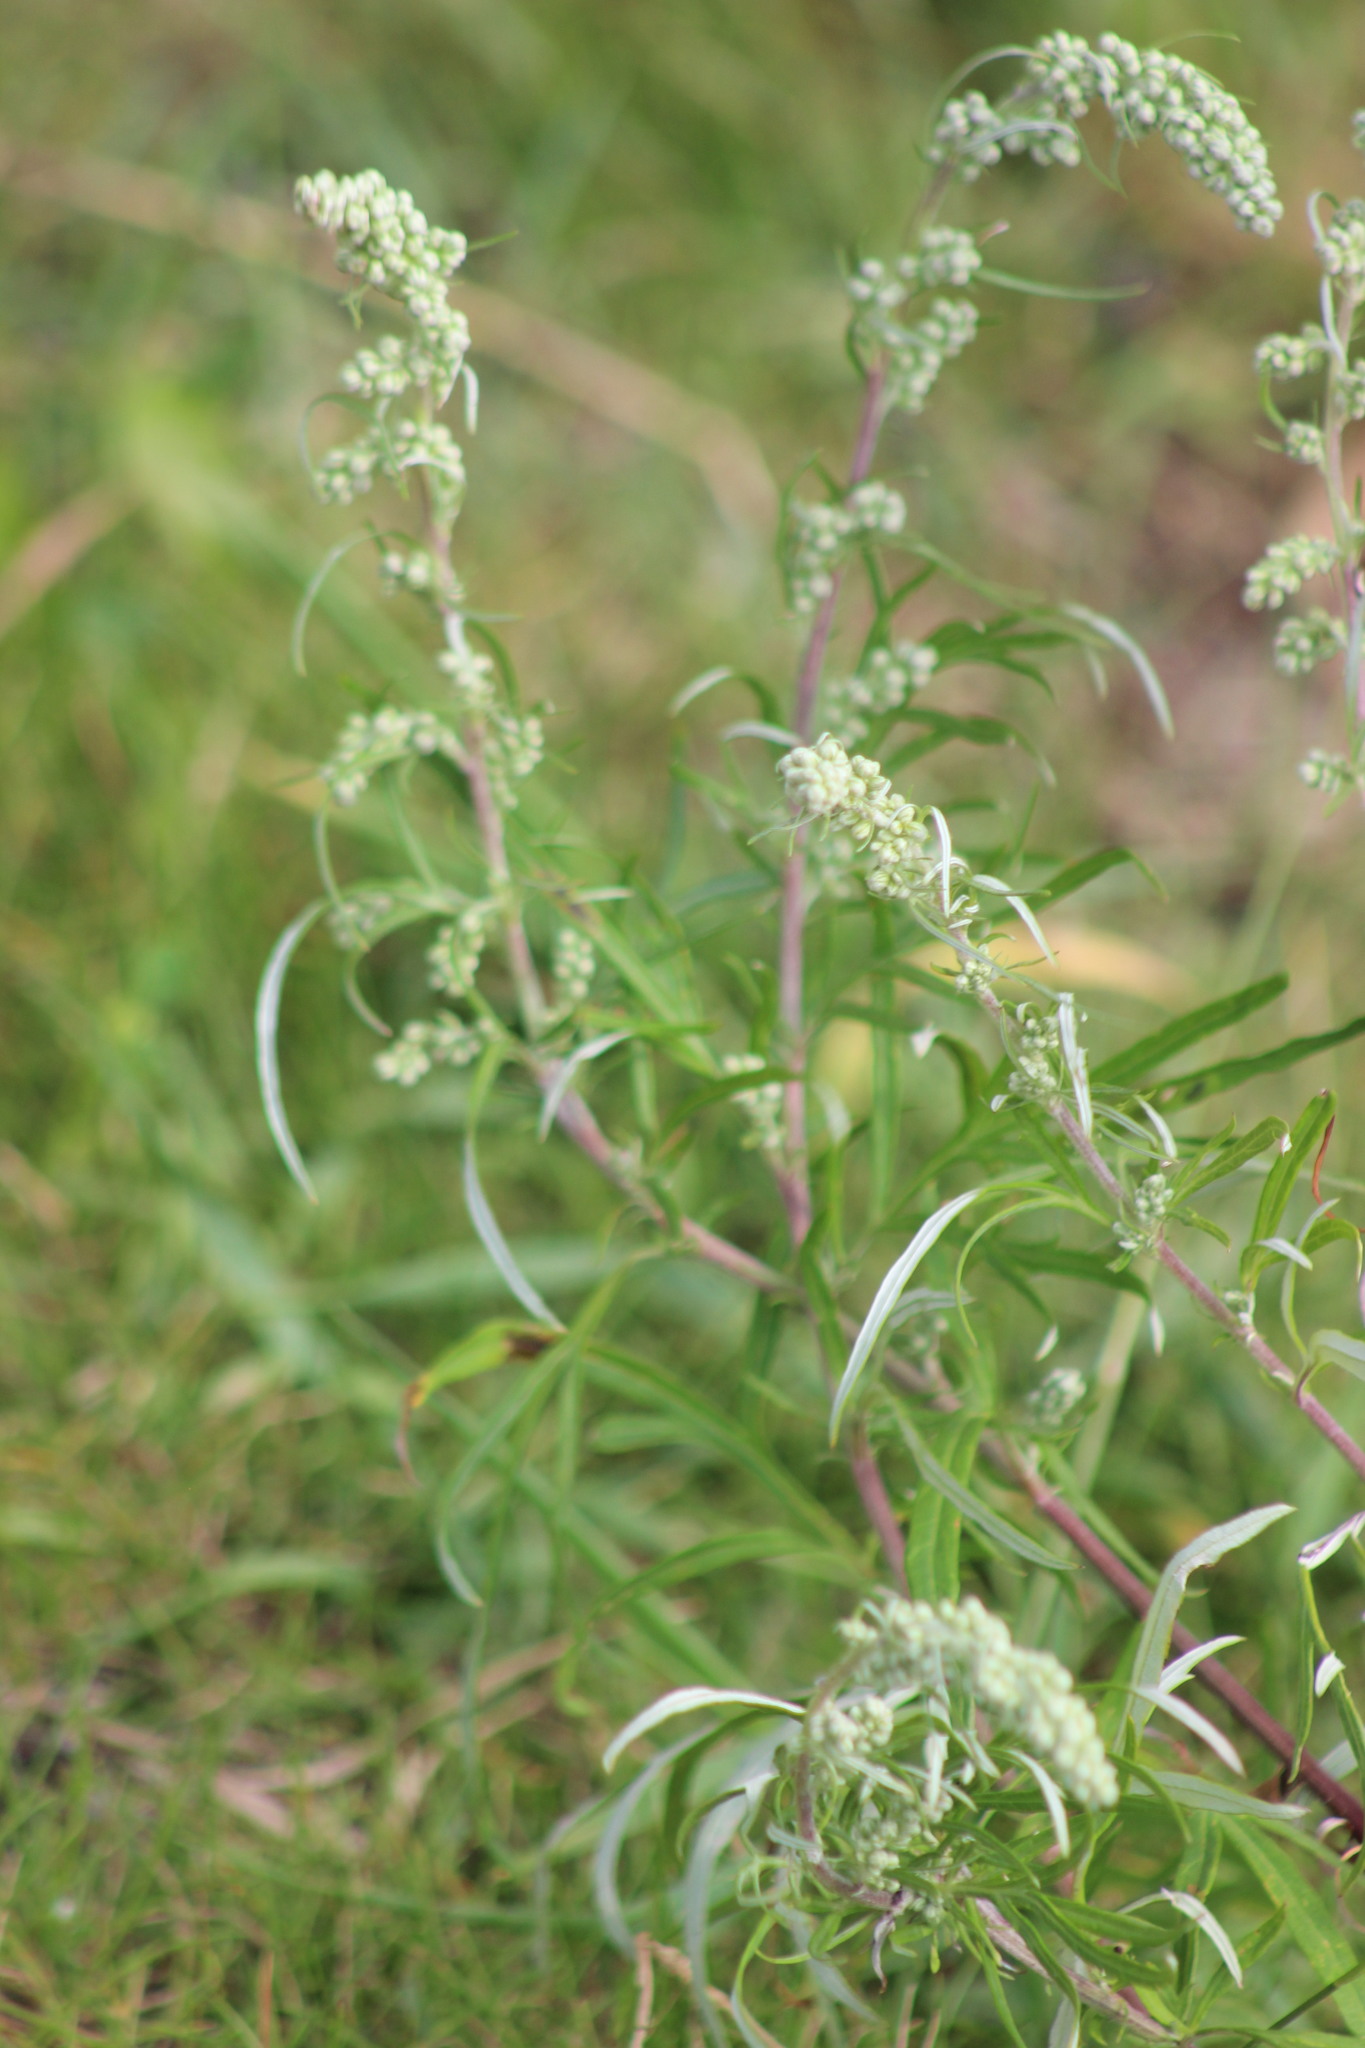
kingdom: Plantae
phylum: Tracheophyta
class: Magnoliopsida
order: Asterales
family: Asteraceae
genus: Artemisia
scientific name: Artemisia vulgaris
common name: Mugwort
